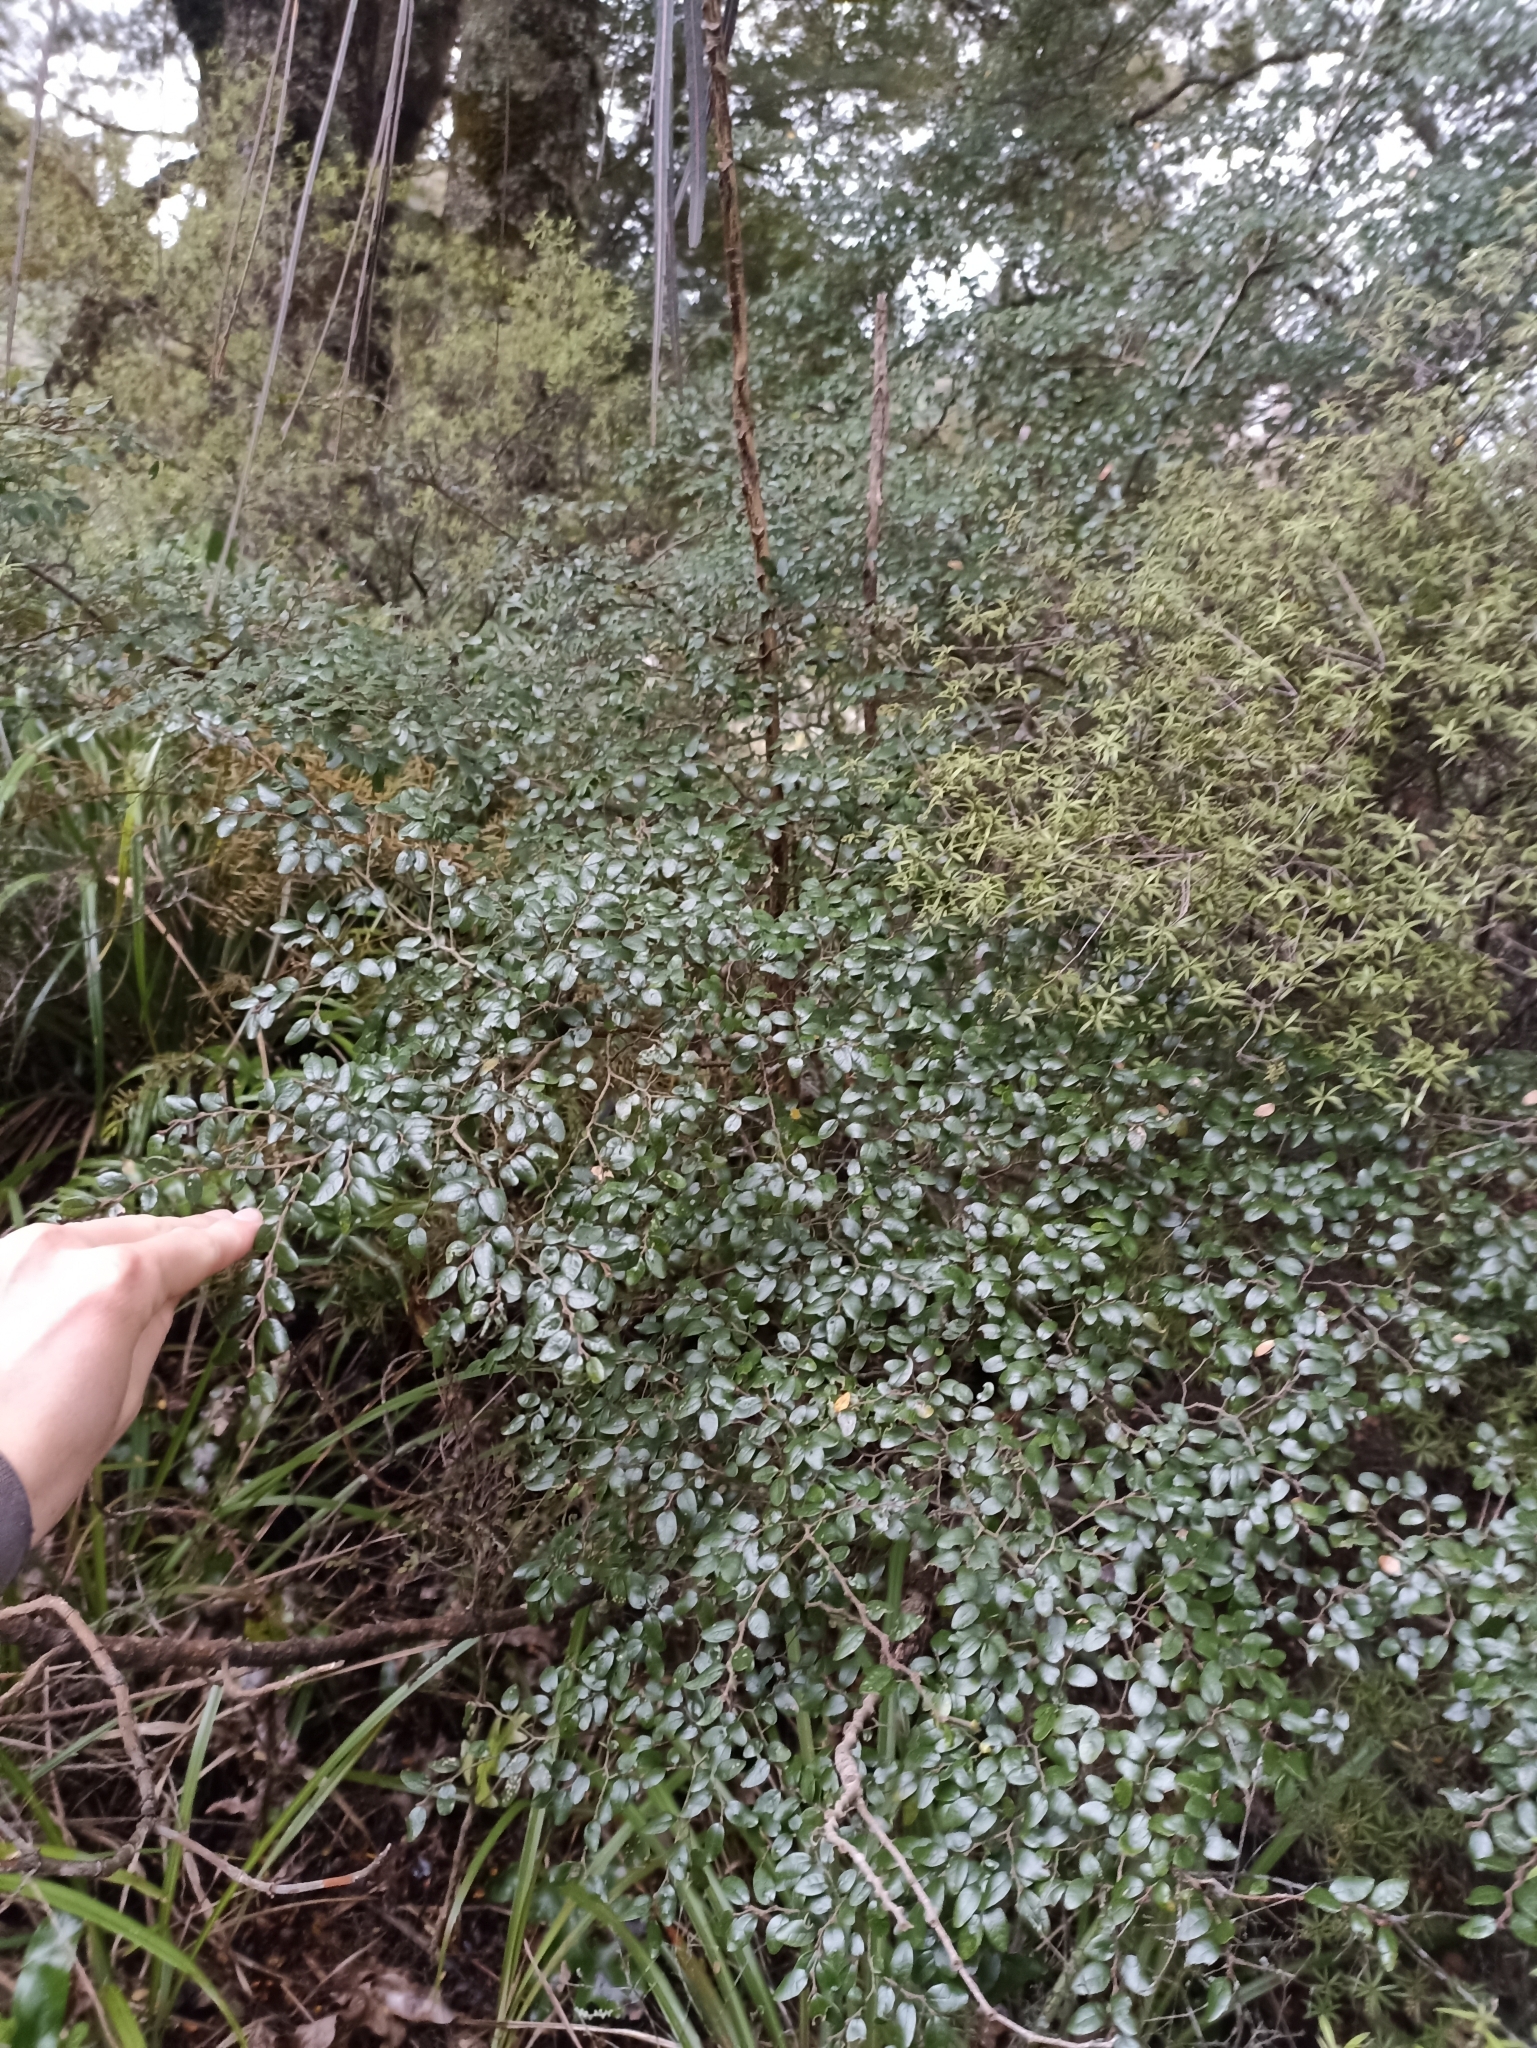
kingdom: Plantae
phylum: Tracheophyta
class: Magnoliopsida
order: Fagales
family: Nothofagaceae
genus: Nothofagus
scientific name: Nothofagus solandri
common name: Black beech
